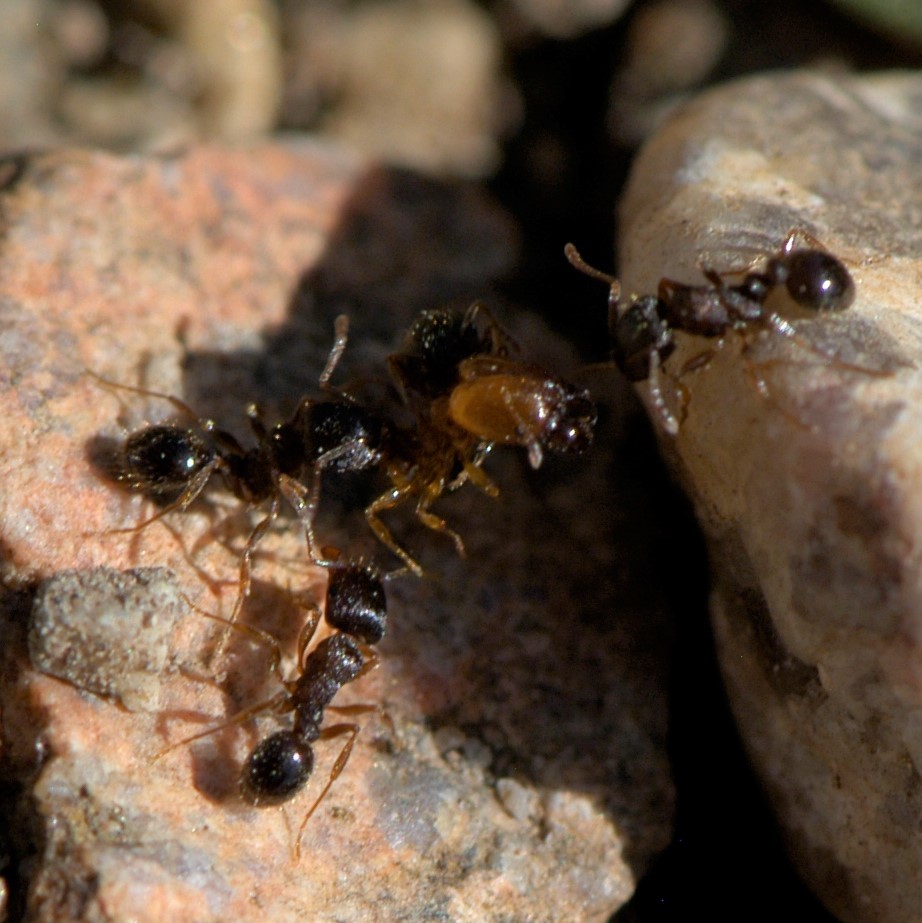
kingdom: Animalia
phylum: Arthropoda
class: Insecta
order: Hymenoptera
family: Formicidae
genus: Tetramorium
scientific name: Tetramorium immigrans
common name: Pavement ant
